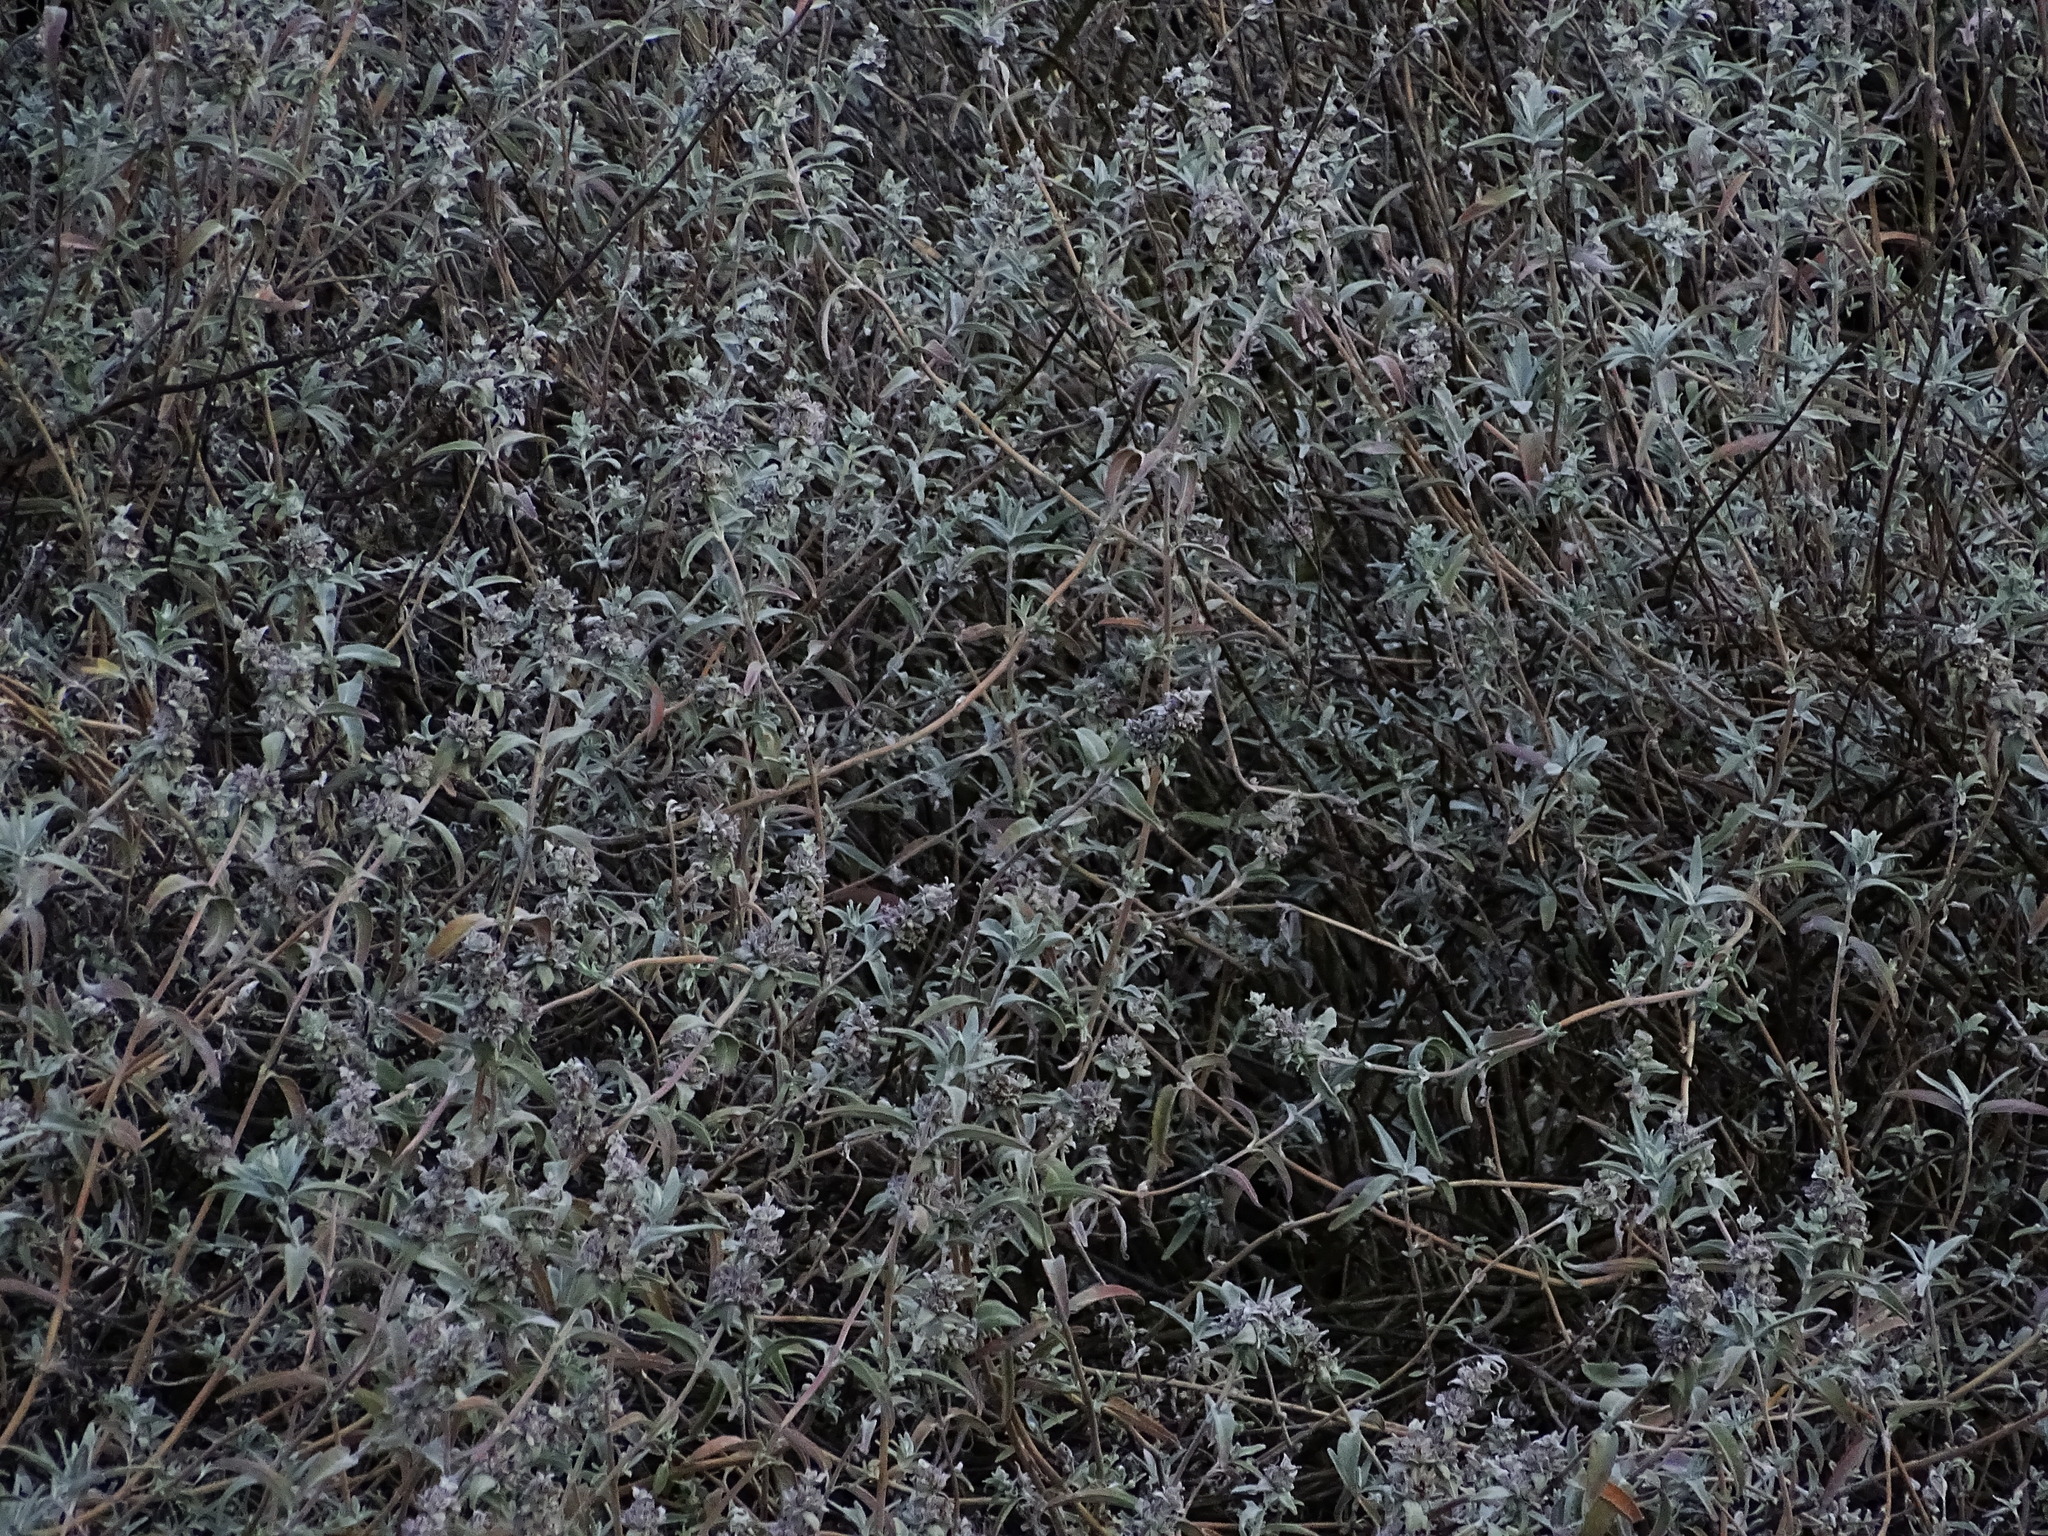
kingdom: Plantae
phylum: Tracheophyta
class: Magnoliopsida
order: Lamiales
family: Lamiaceae
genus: Salvia
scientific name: Salvia leucophylla
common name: Purple sage
